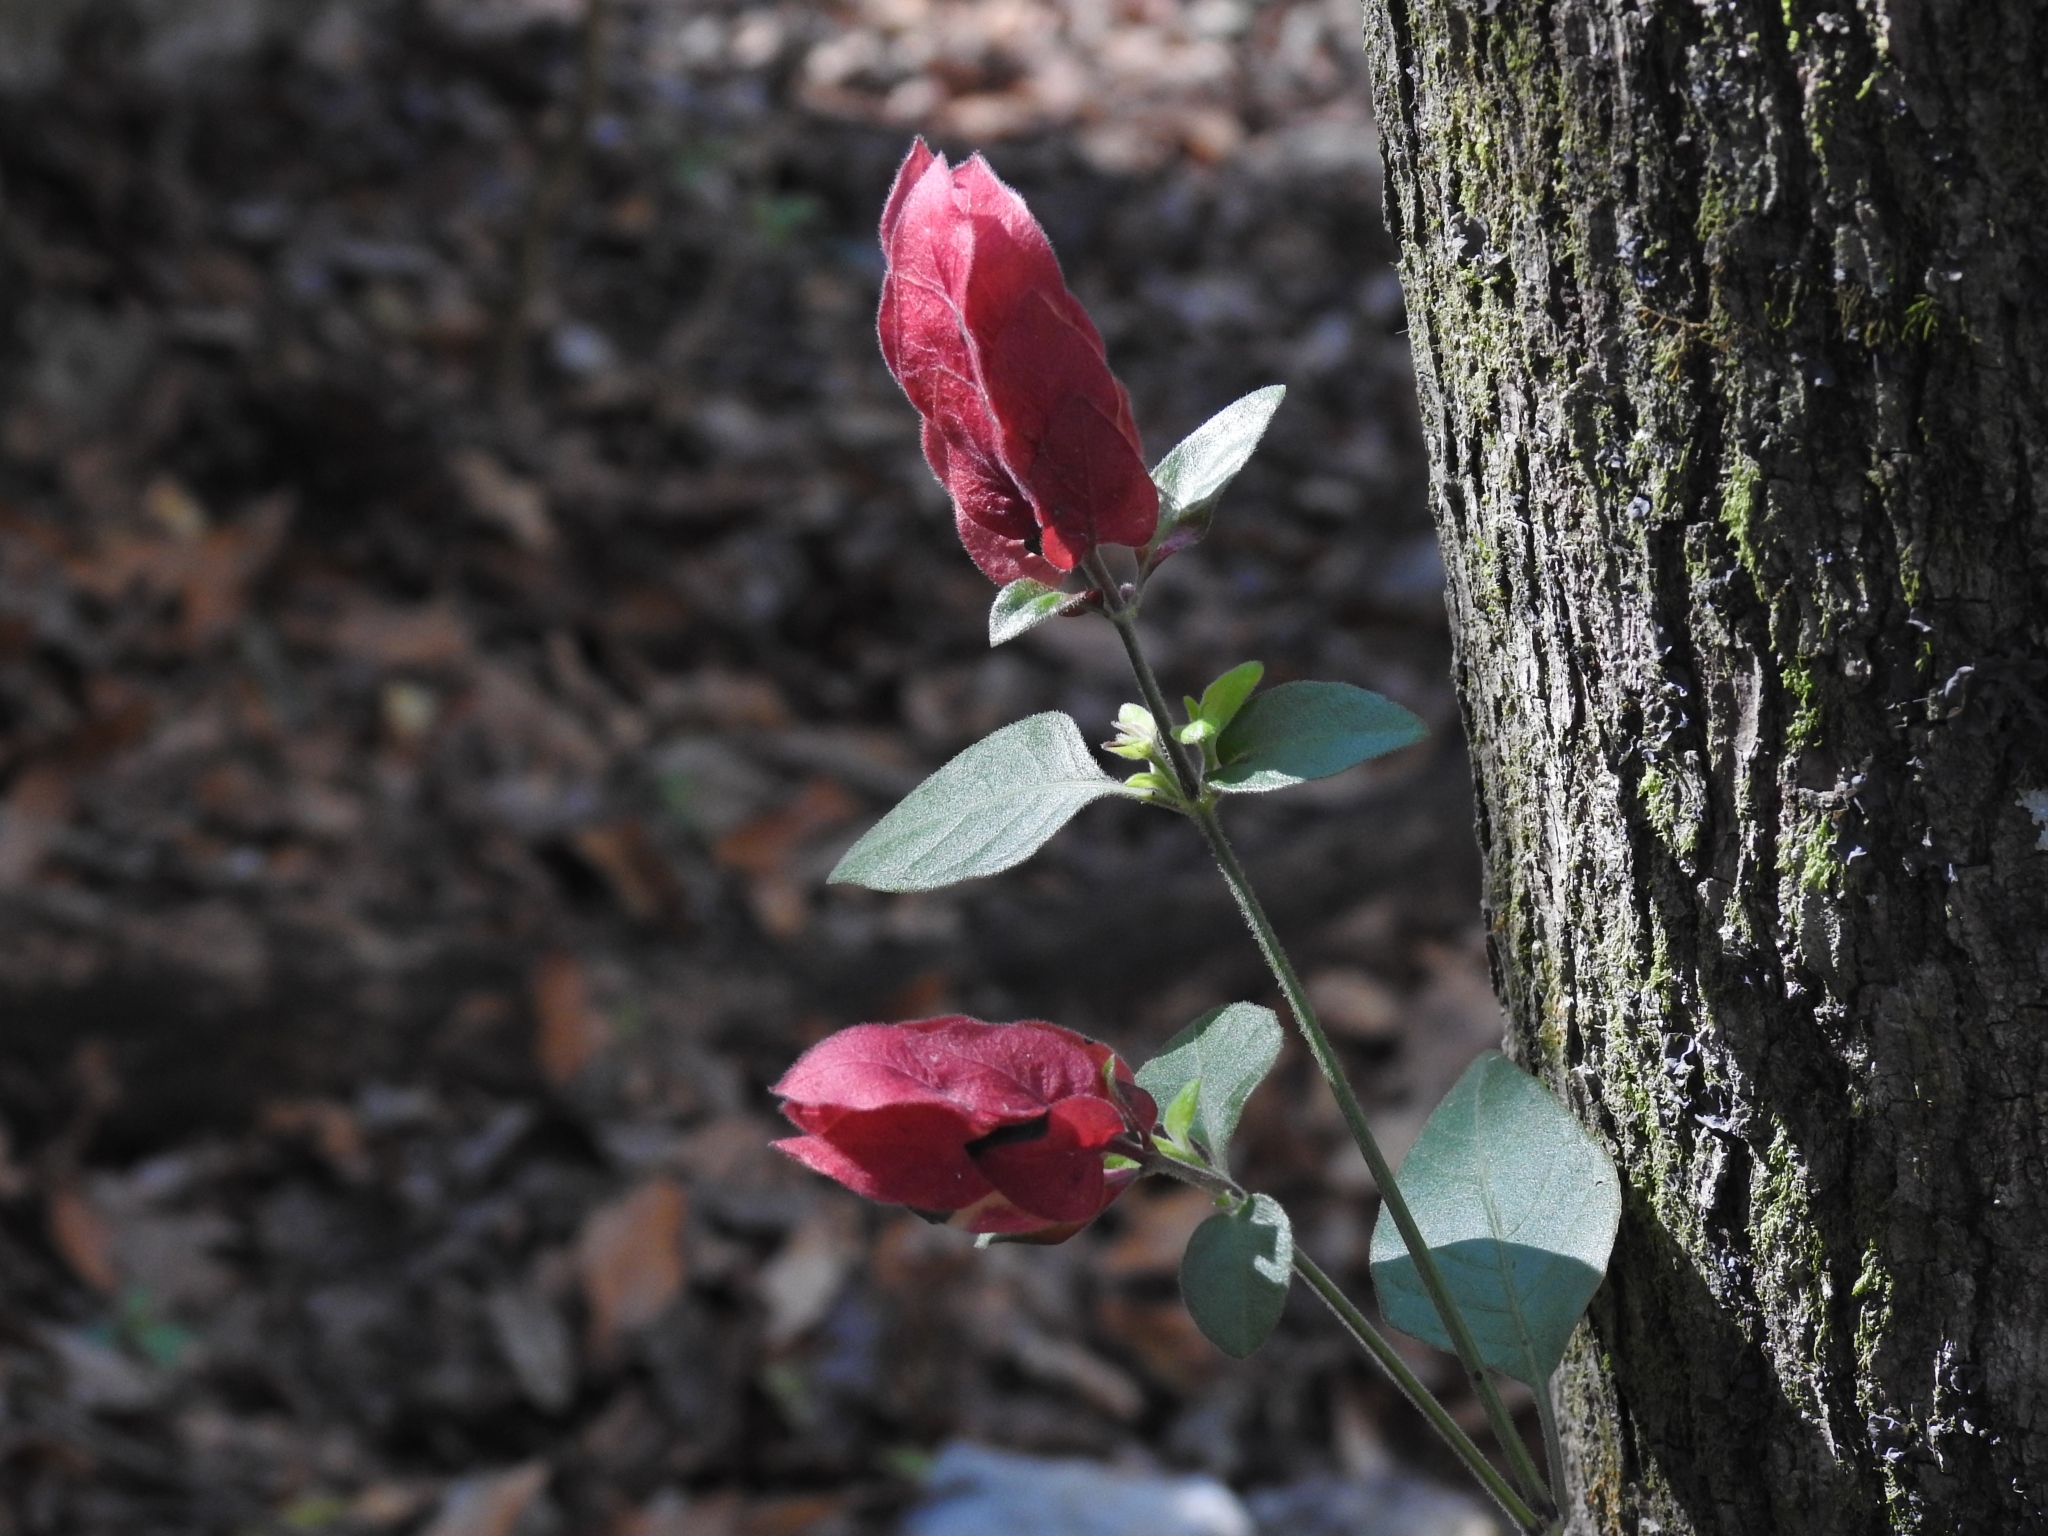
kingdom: Plantae
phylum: Tracheophyta
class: Magnoliopsida
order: Lamiales
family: Acanthaceae
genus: Justicia
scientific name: Justicia brandegeeana
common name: Shrimpplant
